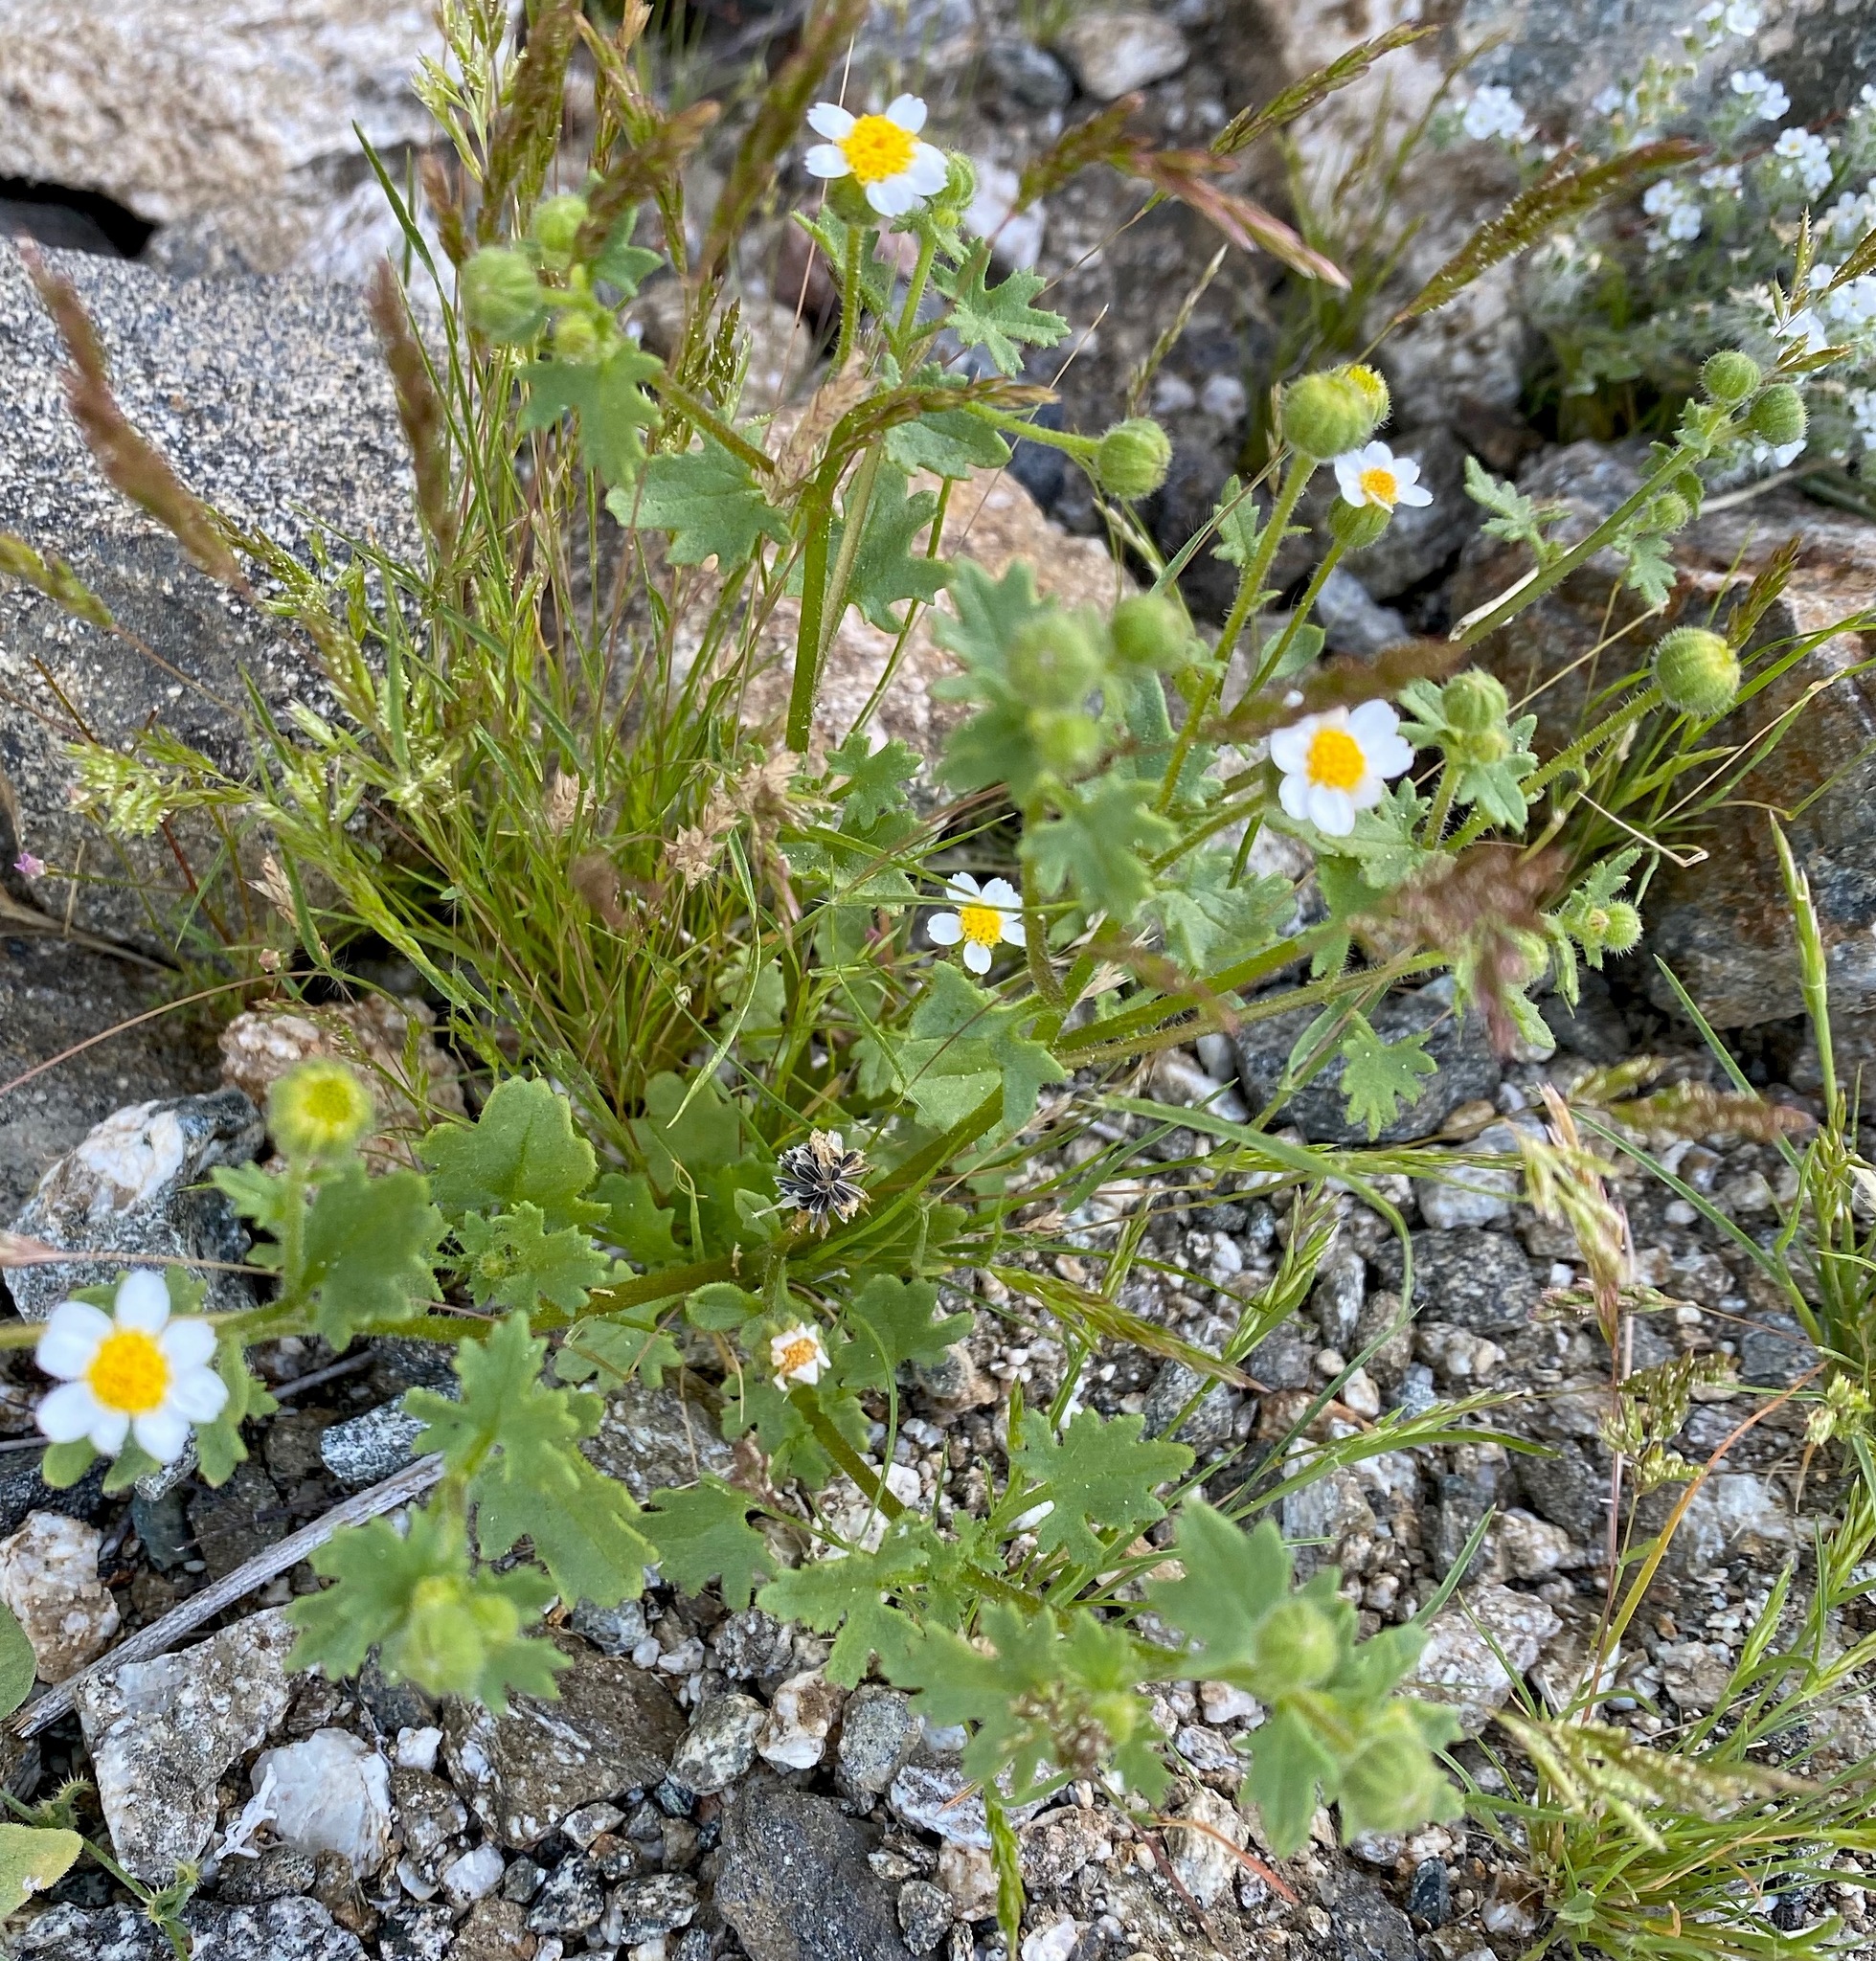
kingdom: Plantae
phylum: Tracheophyta
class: Magnoliopsida
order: Asterales
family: Asteraceae
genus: Laphamia
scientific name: Laphamia emoryi
